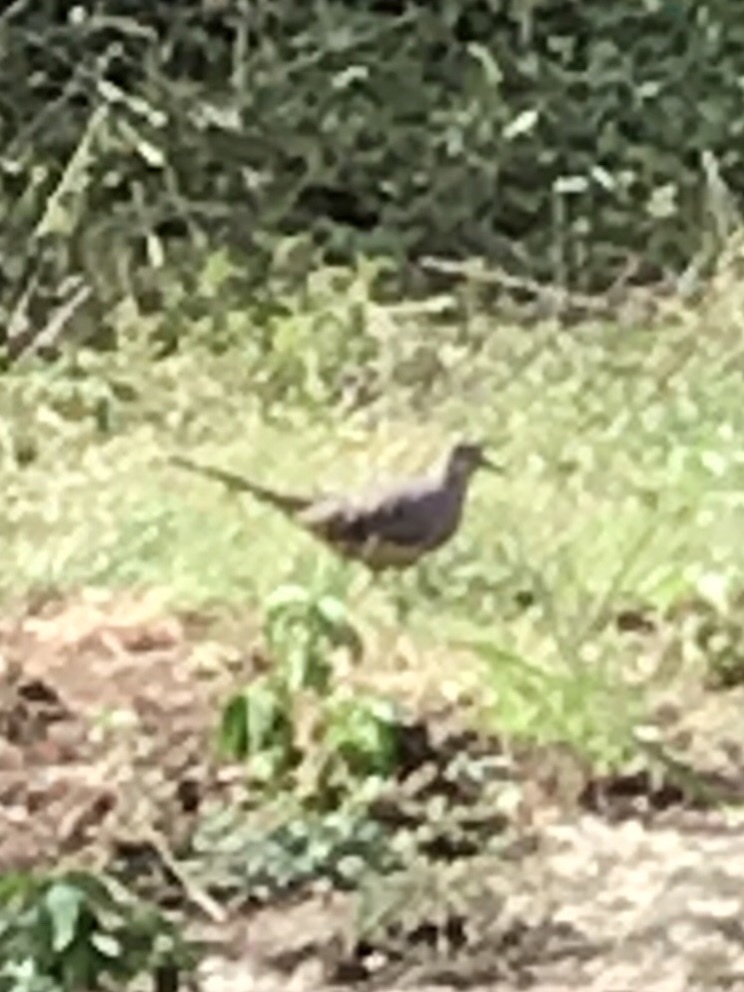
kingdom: Animalia
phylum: Chordata
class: Aves
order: Columbiformes
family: Columbidae
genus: Columbina
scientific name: Columbina inca
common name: Inca dove
